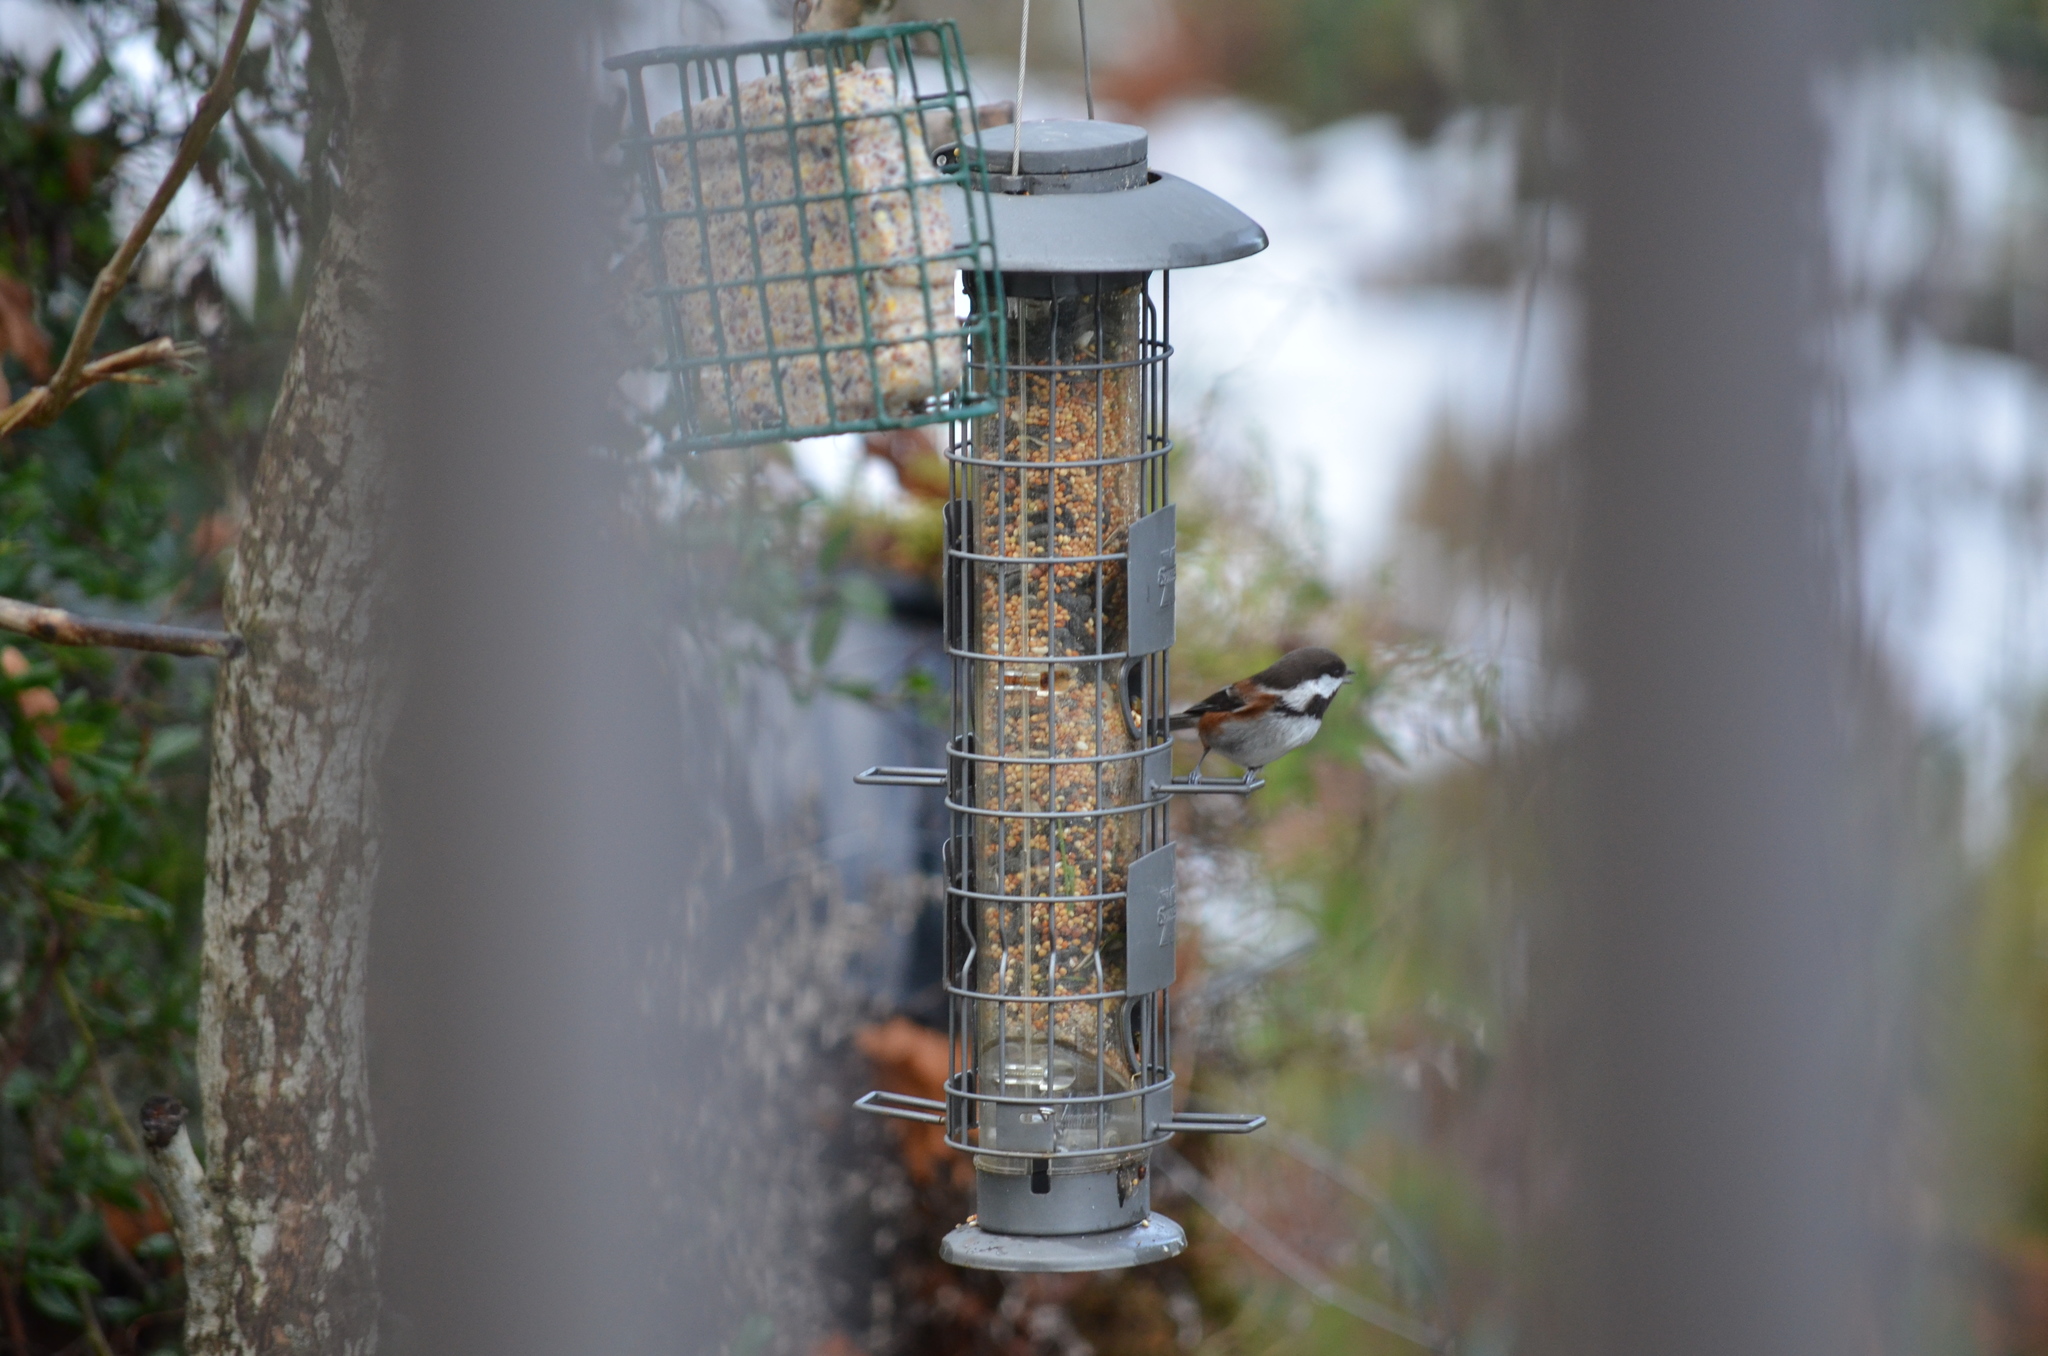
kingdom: Animalia
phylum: Chordata
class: Aves
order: Passeriformes
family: Paridae
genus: Poecile
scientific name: Poecile rufescens
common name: Chestnut-backed chickadee
